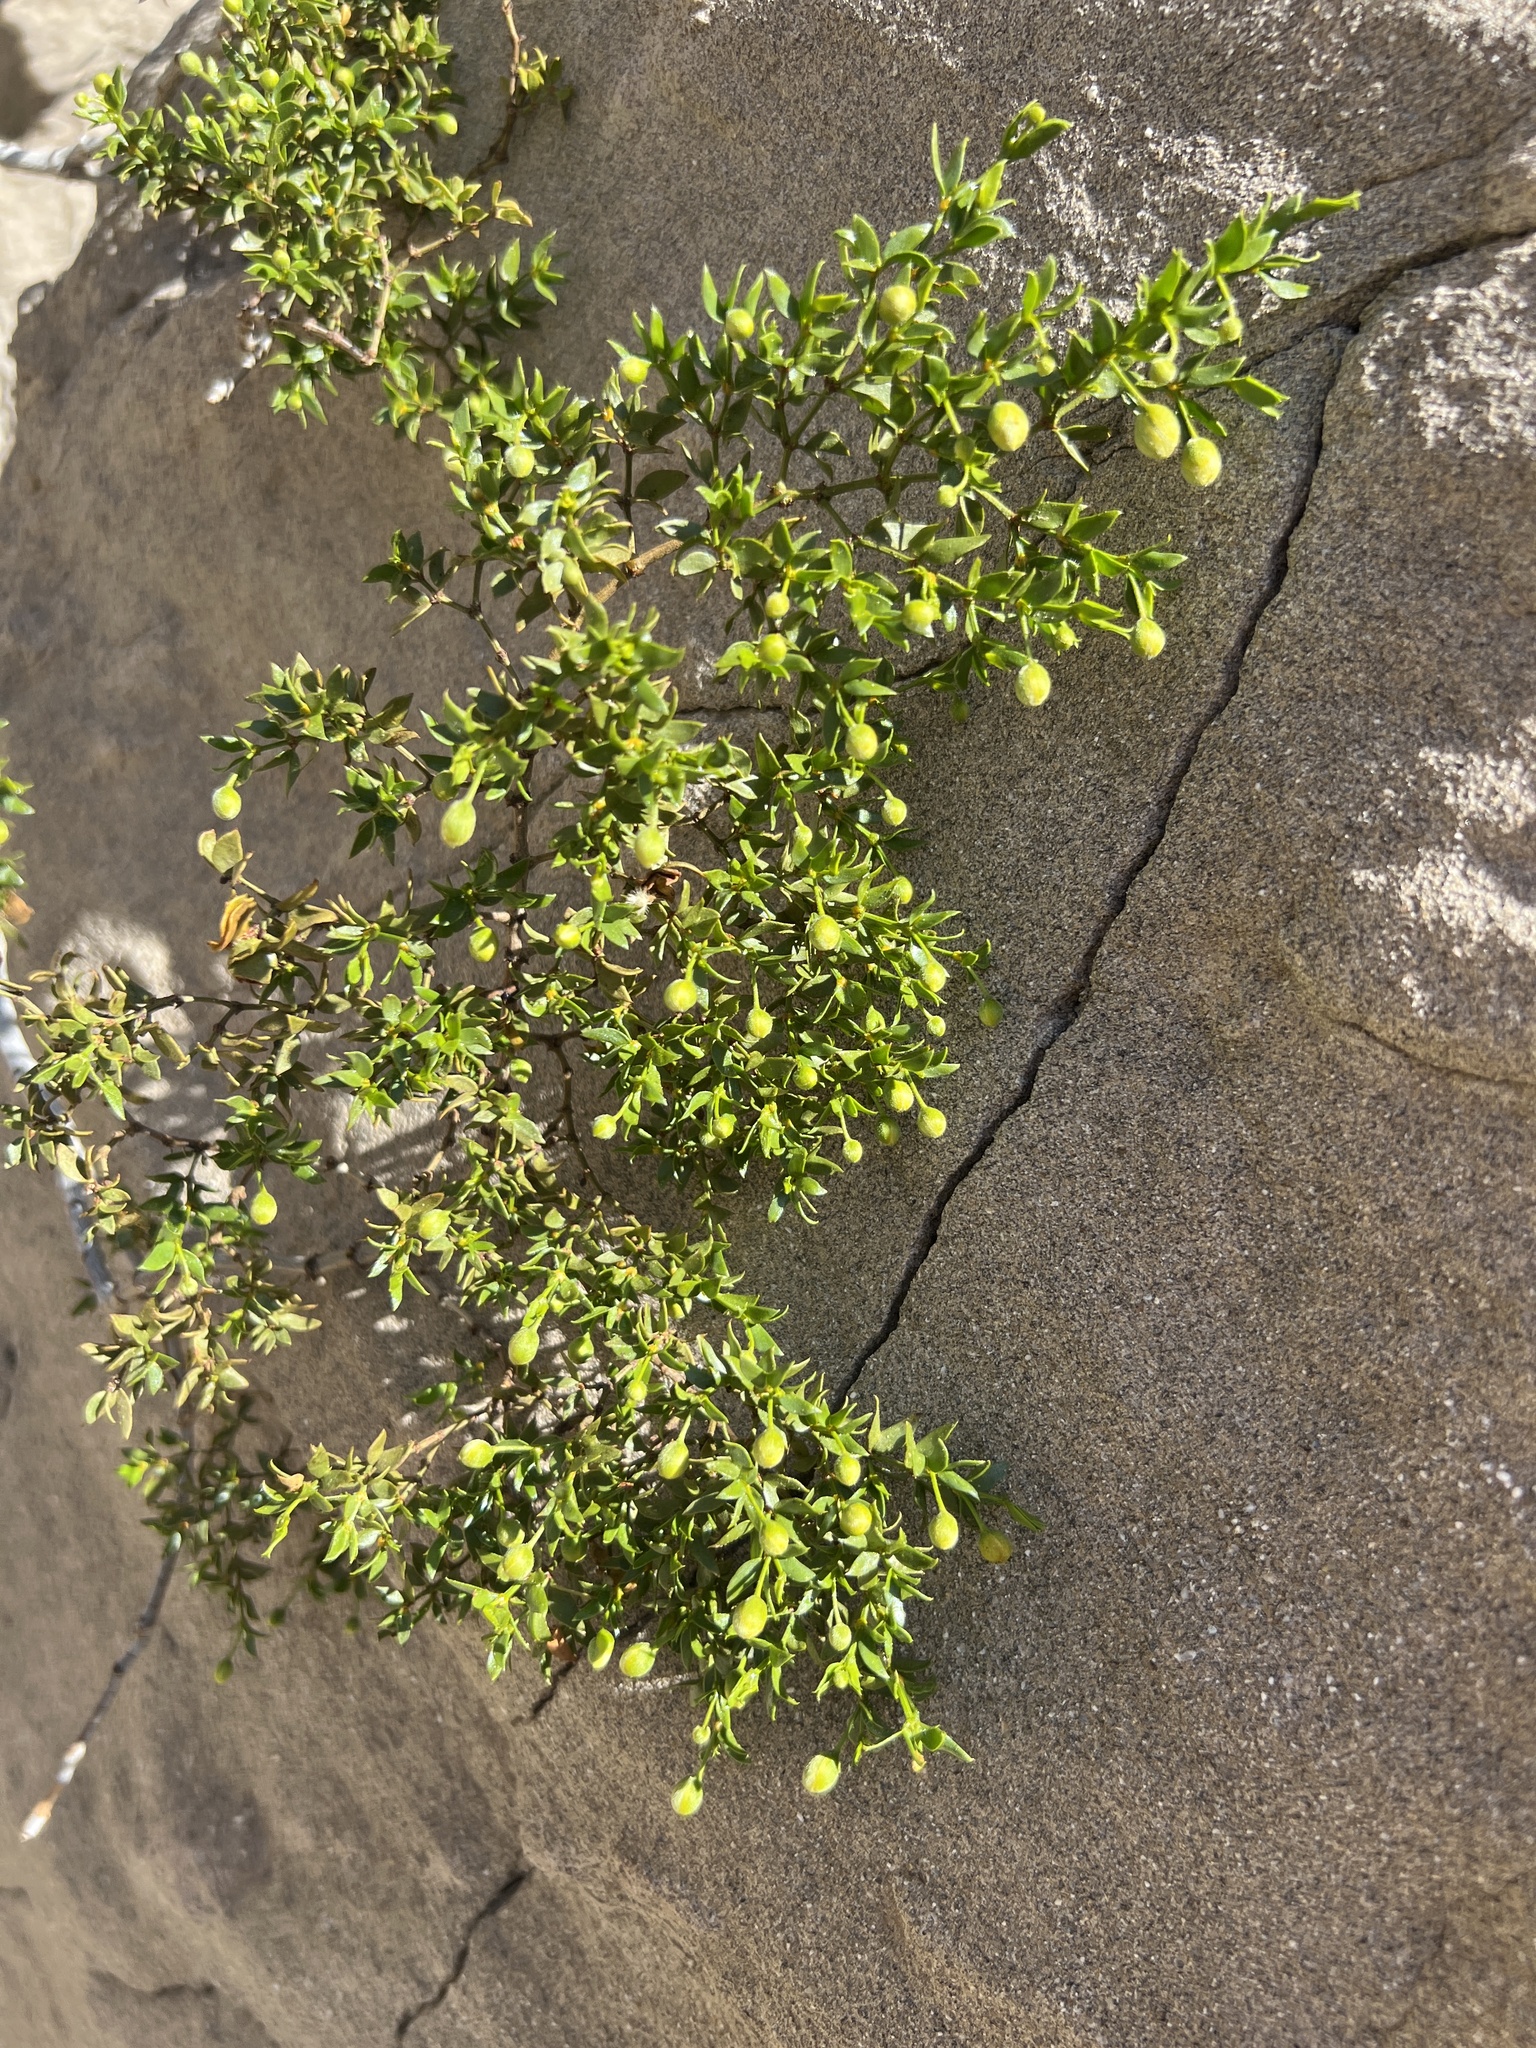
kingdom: Plantae
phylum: Tracheophyta
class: Magnoliopsida
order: Zygophyllales
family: Zygophyllaceae
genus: Larrea
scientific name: Larrea tridentata
